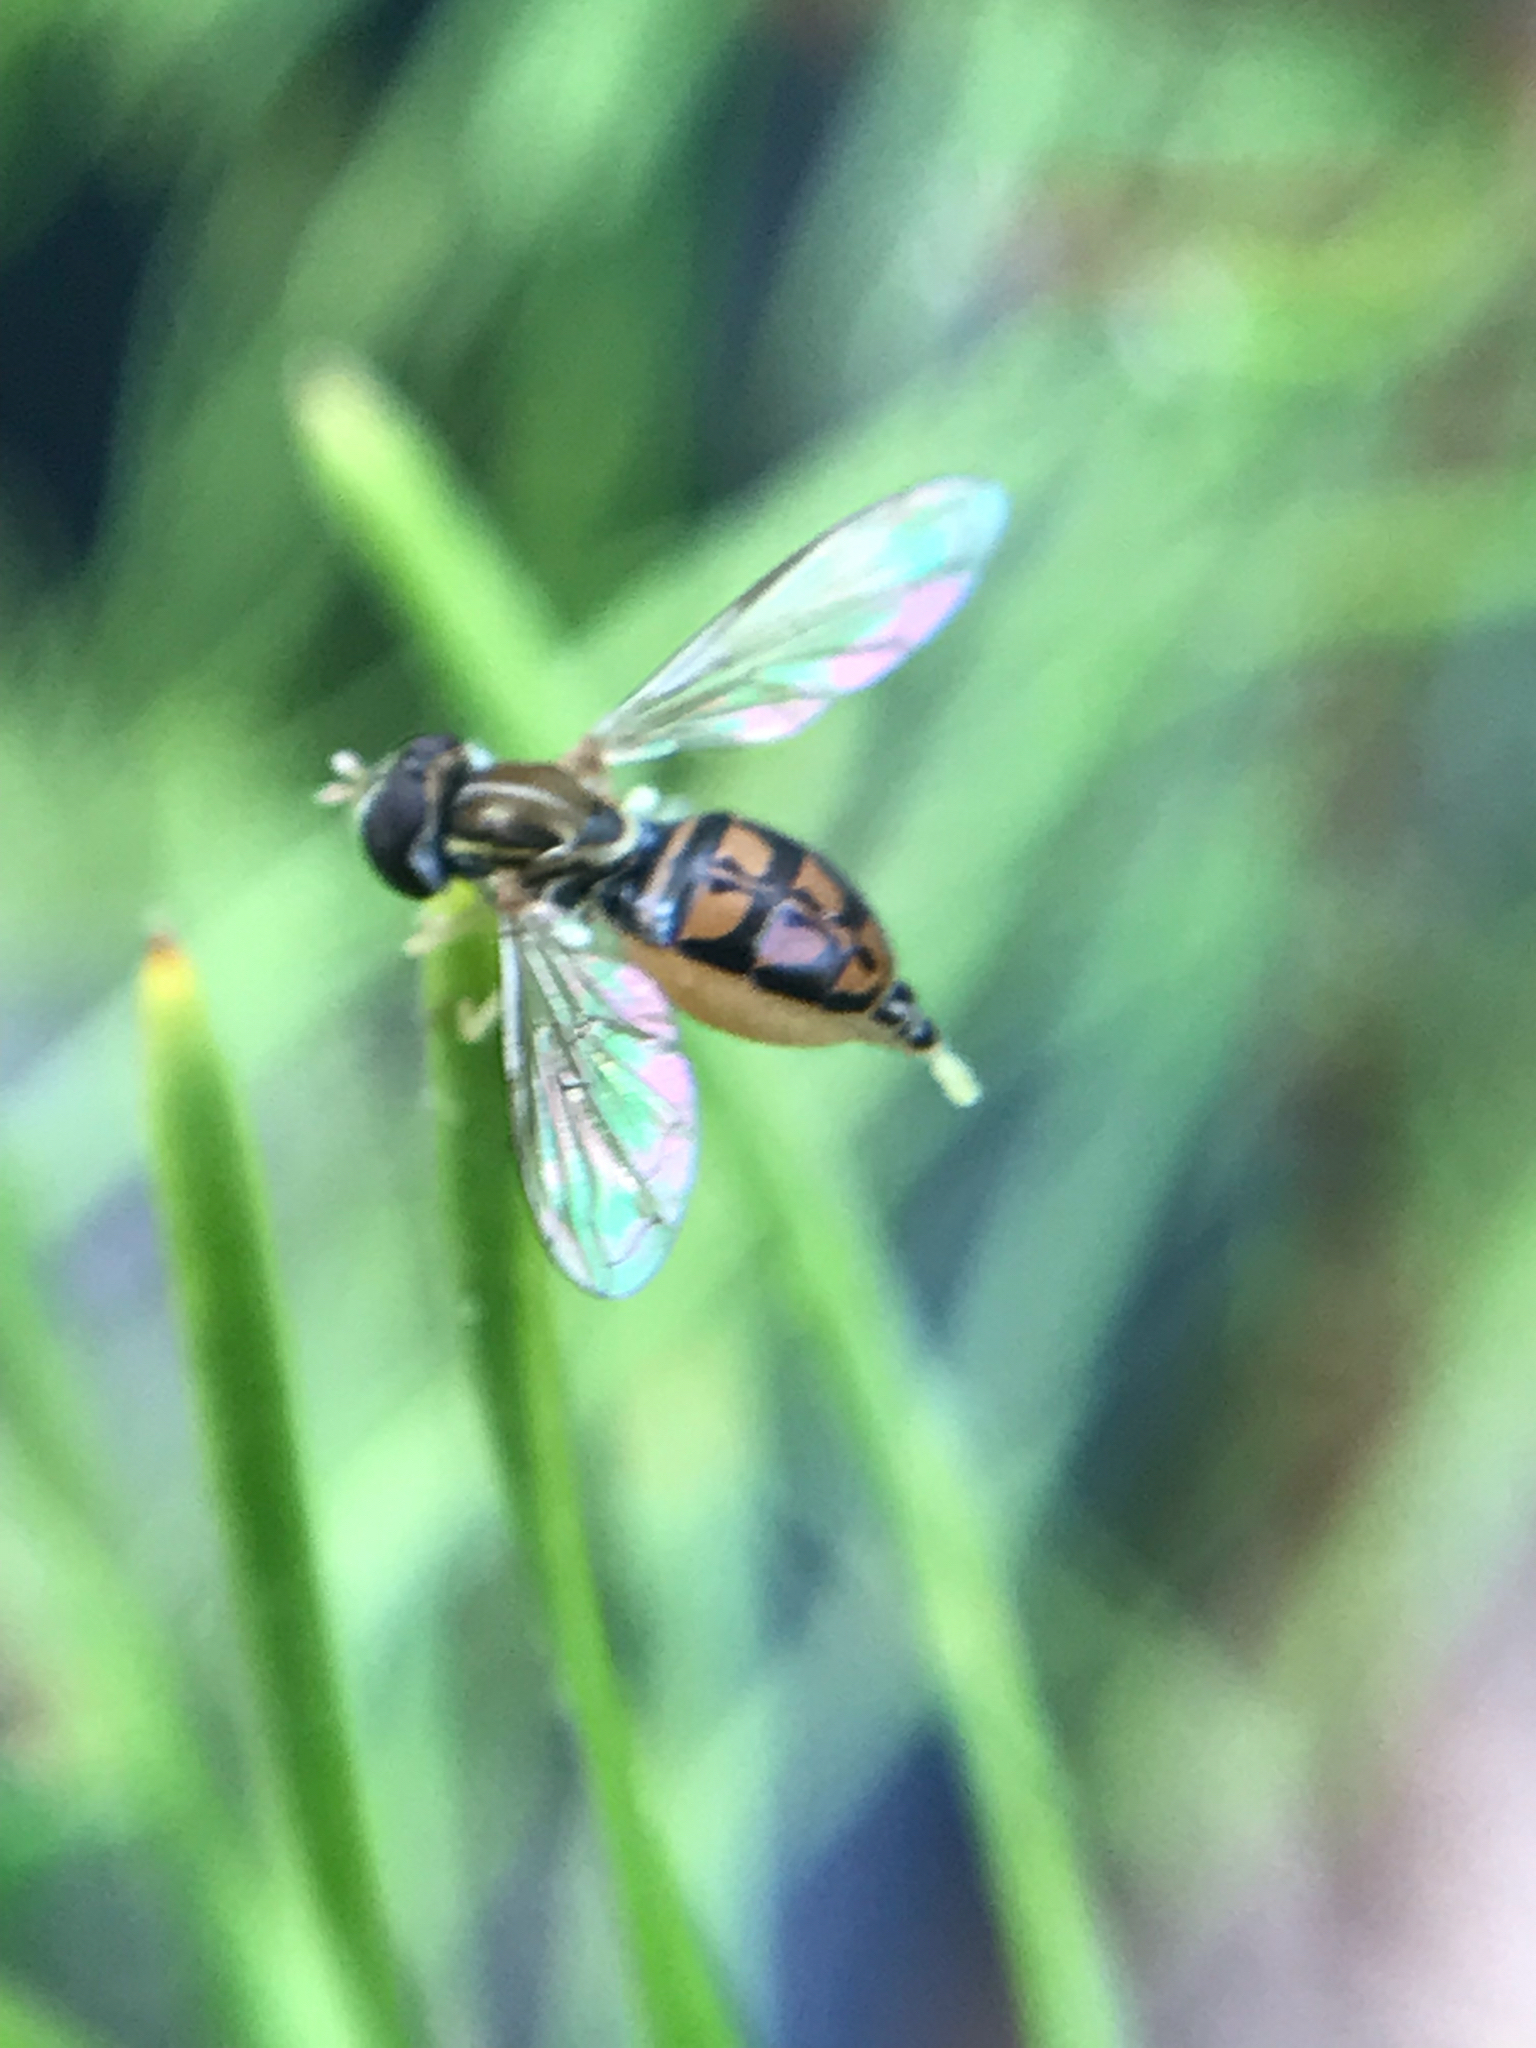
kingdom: Animalia
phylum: Arthropoda
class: Insecta
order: Diptera
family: Syrphidae
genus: Toxomerus
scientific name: Toxomerus marginatus
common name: Syrphid fly
